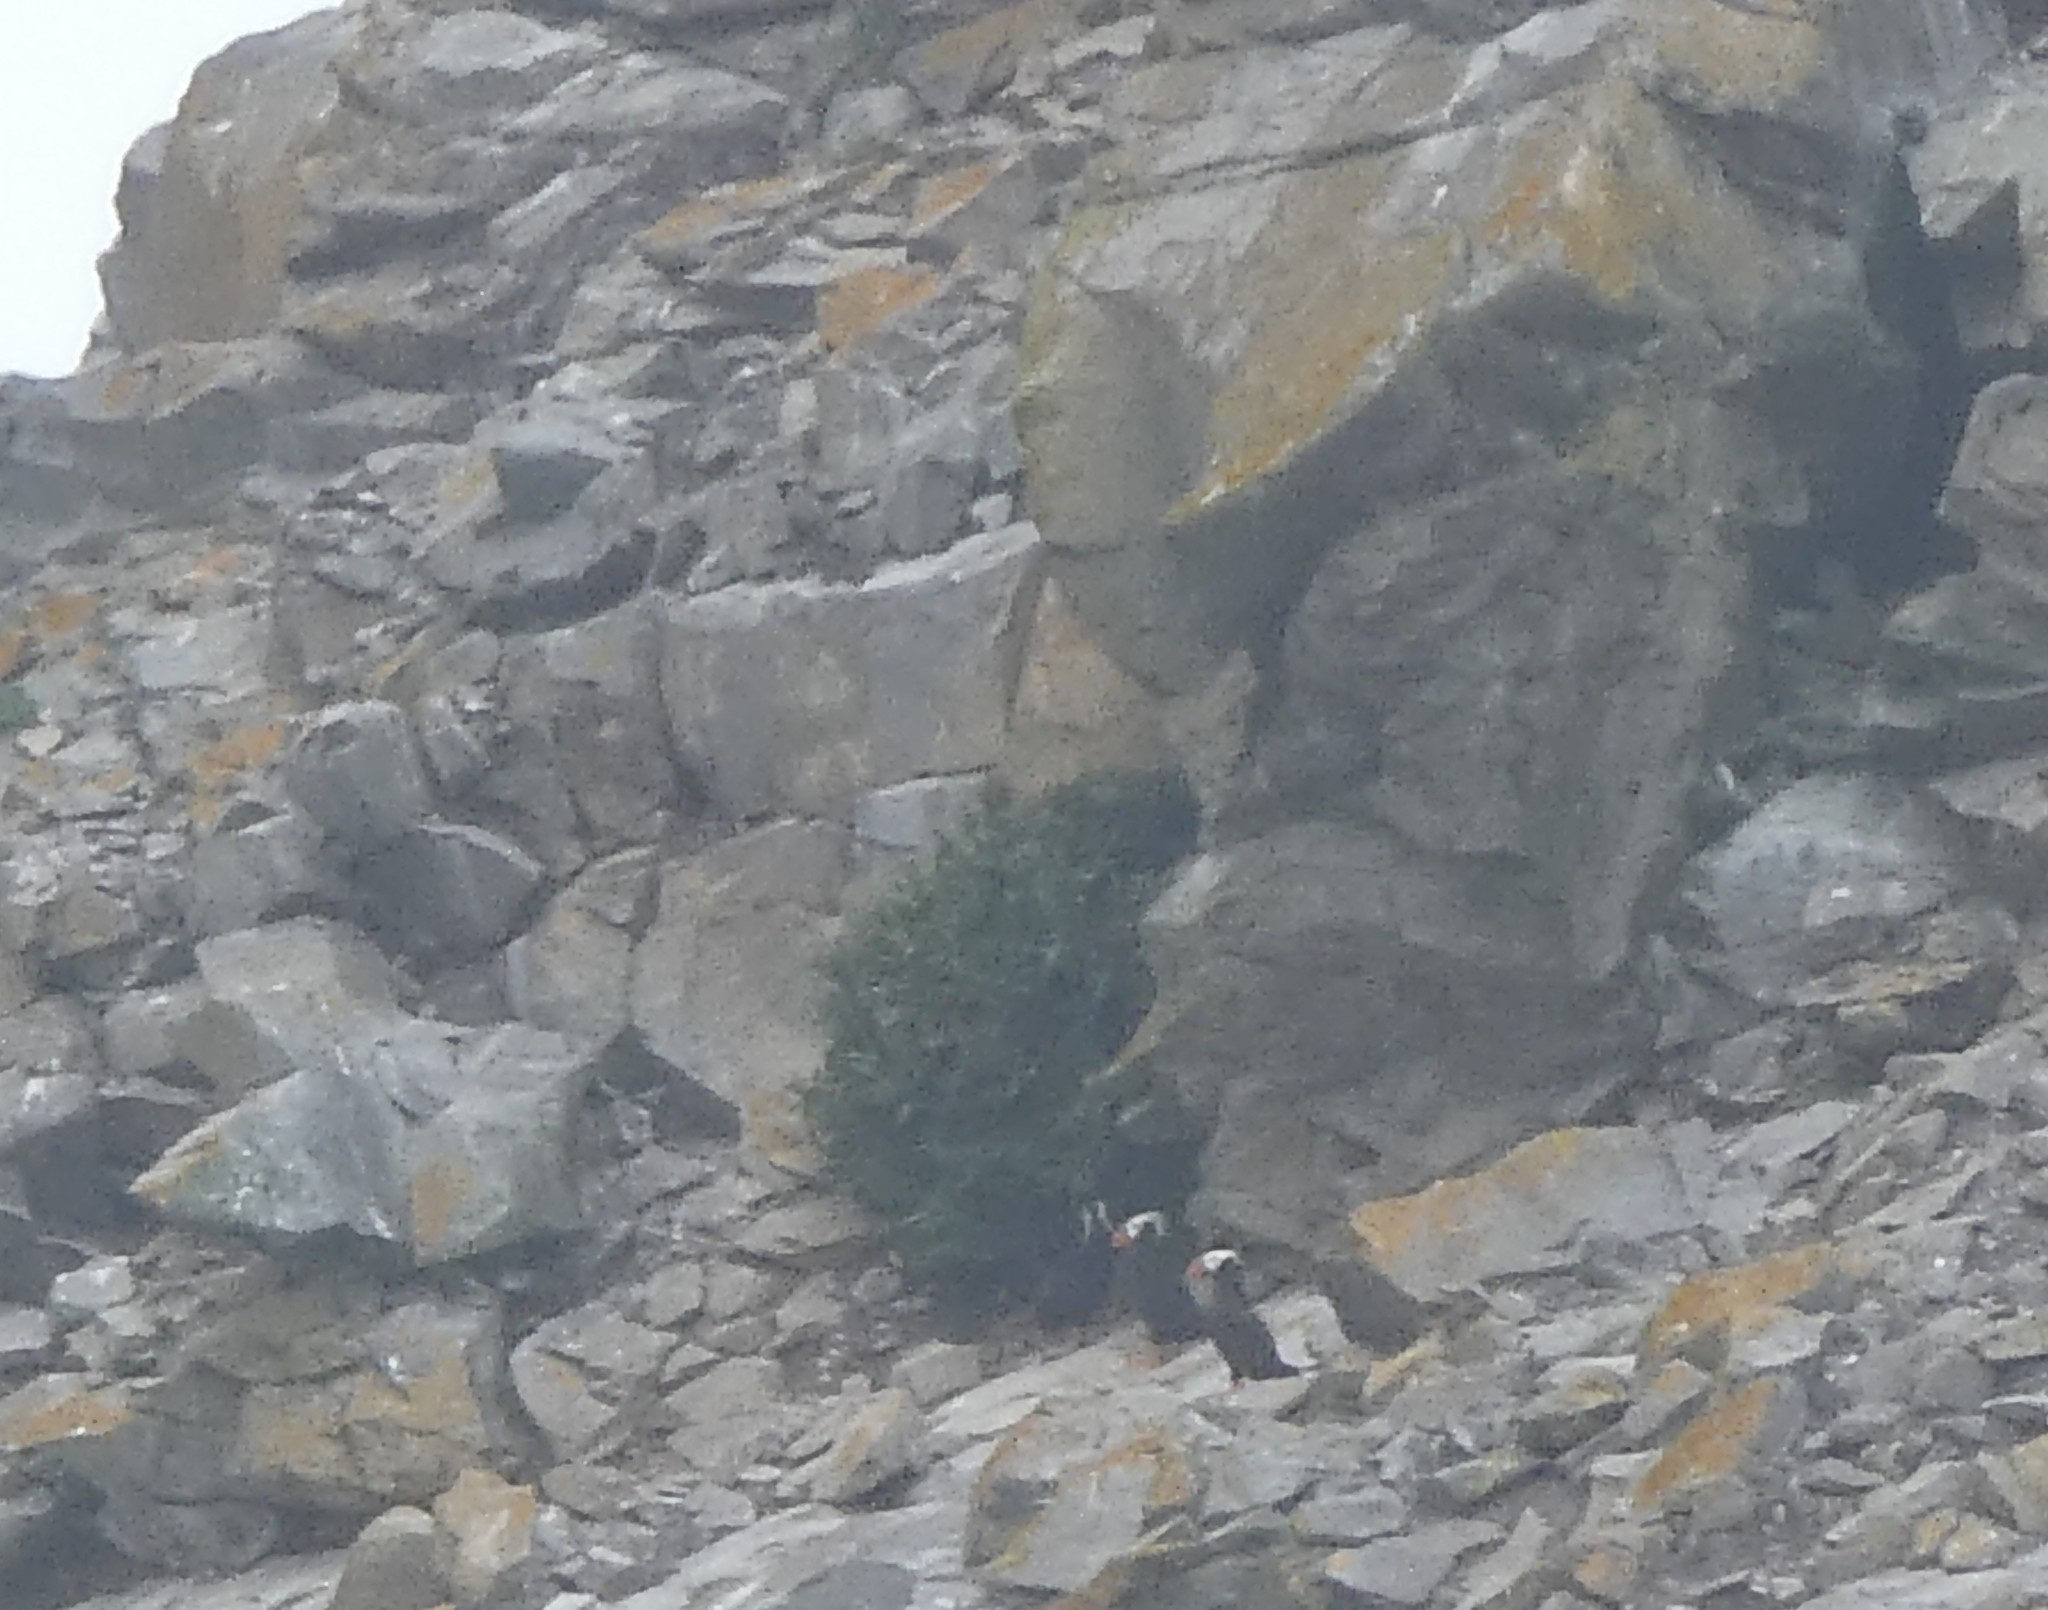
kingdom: Animalia
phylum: Chordata
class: Aves
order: Charadriiformes
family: Alcidae
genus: Fratercula
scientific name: Fratercula cirrhata
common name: Tufted puffin
